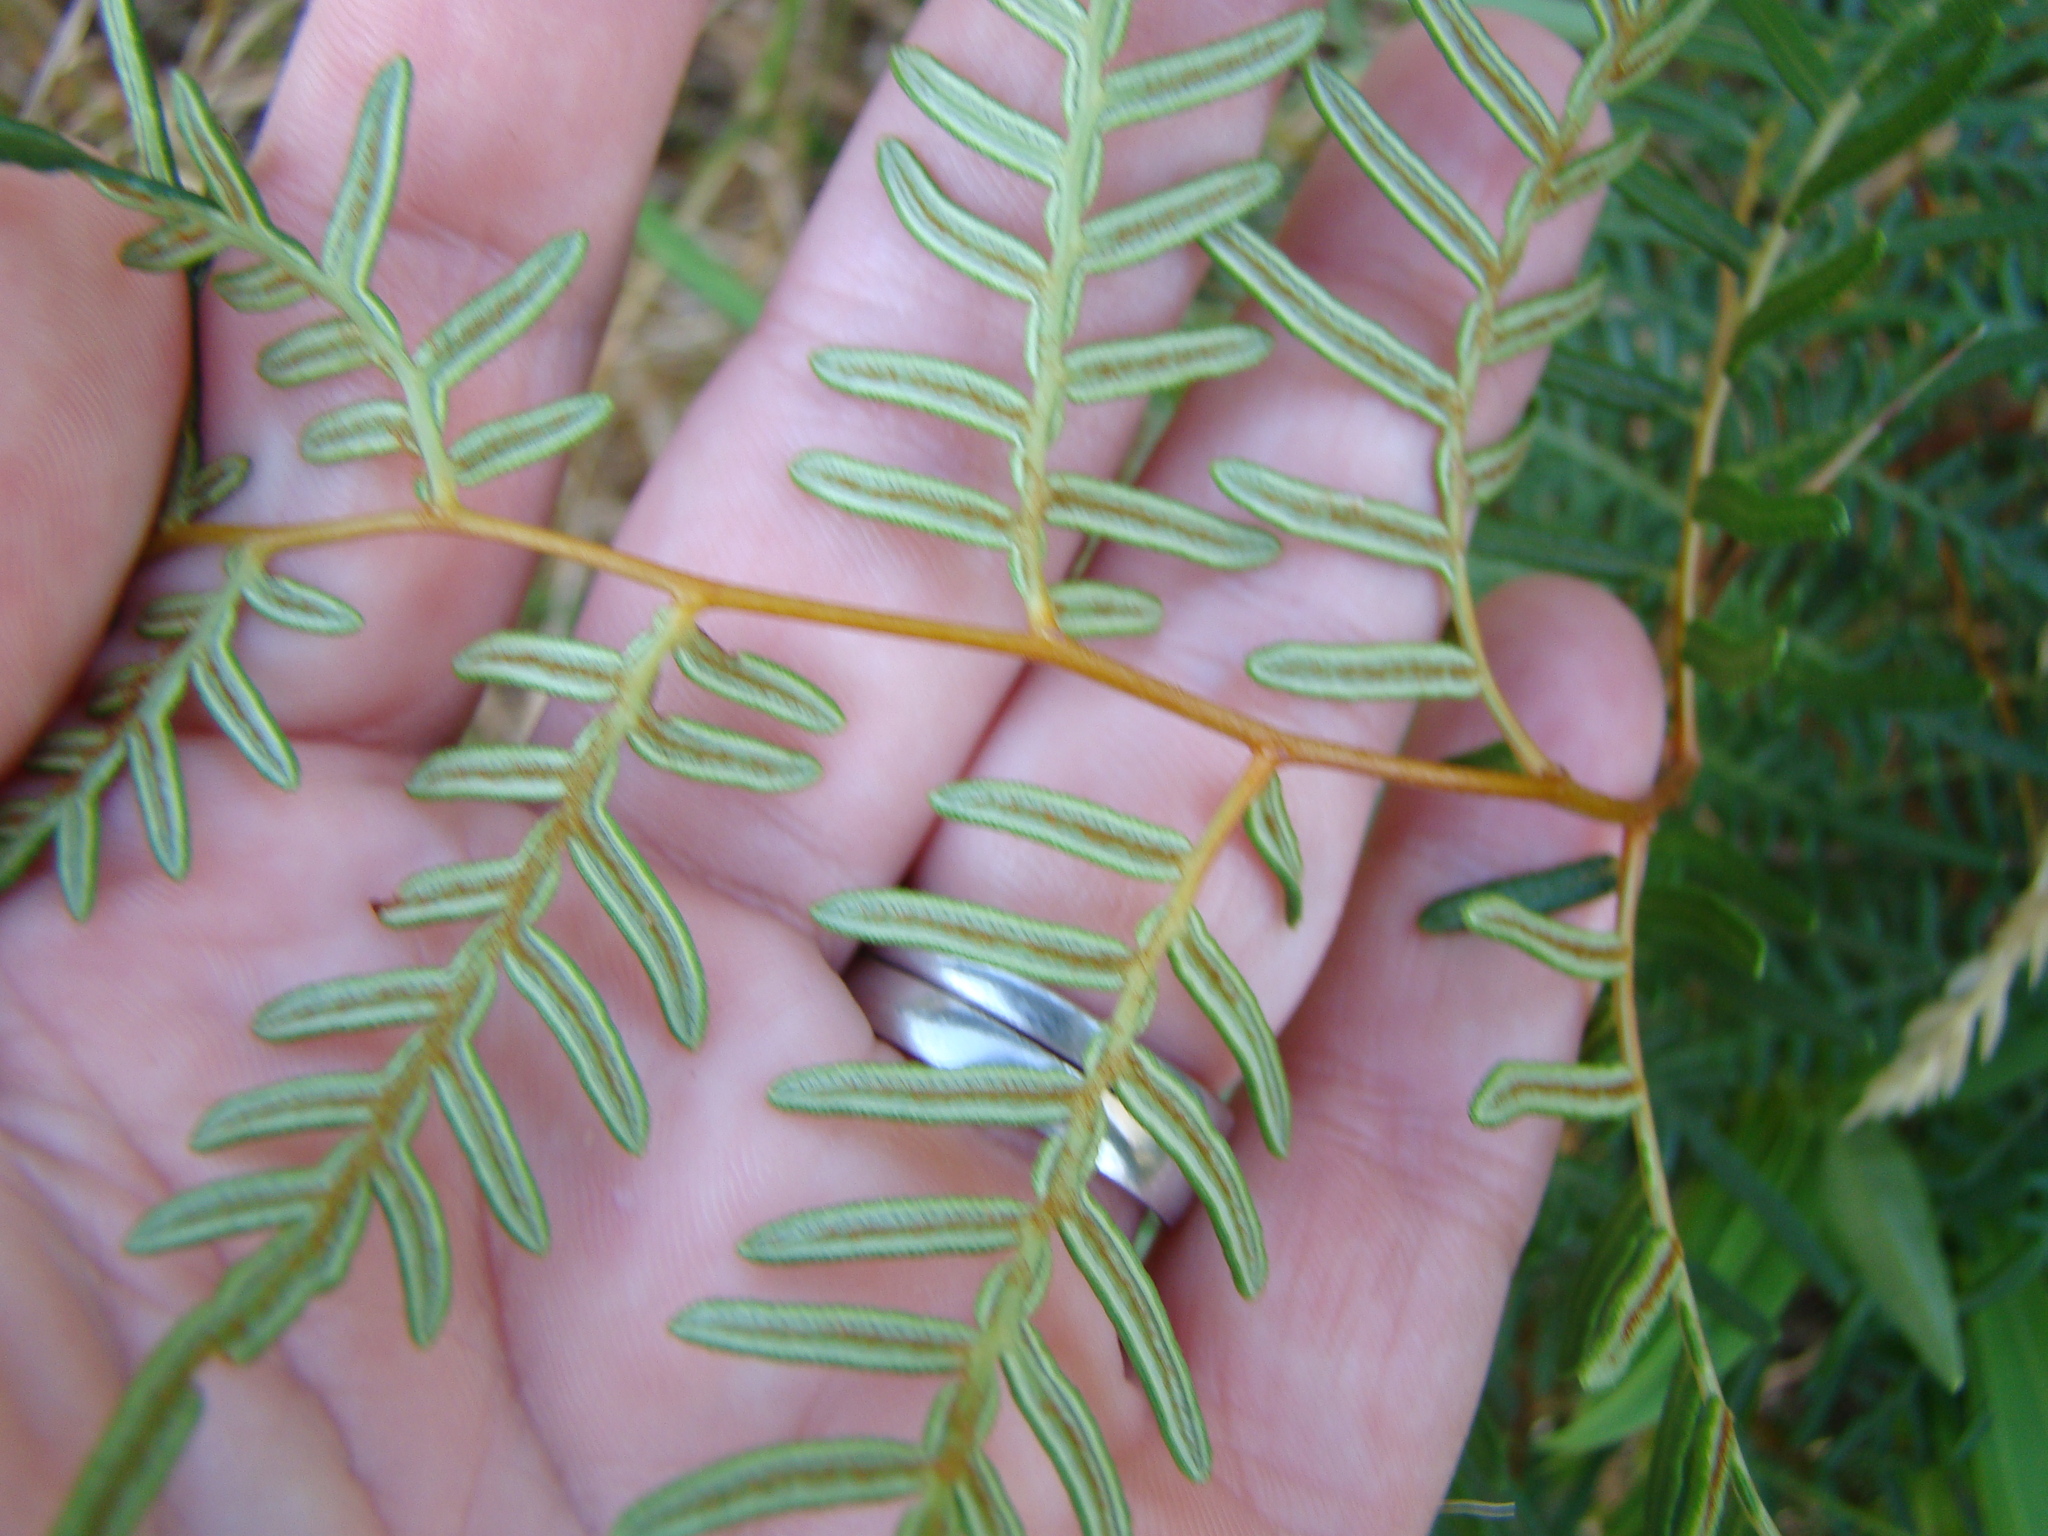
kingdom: Plantae
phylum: Tracheophyta
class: Polypodiopsida
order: Polypodiales
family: Dennstaedtiaceae
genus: Pteridium
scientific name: Pteridium esculentum
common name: Bracken fern
